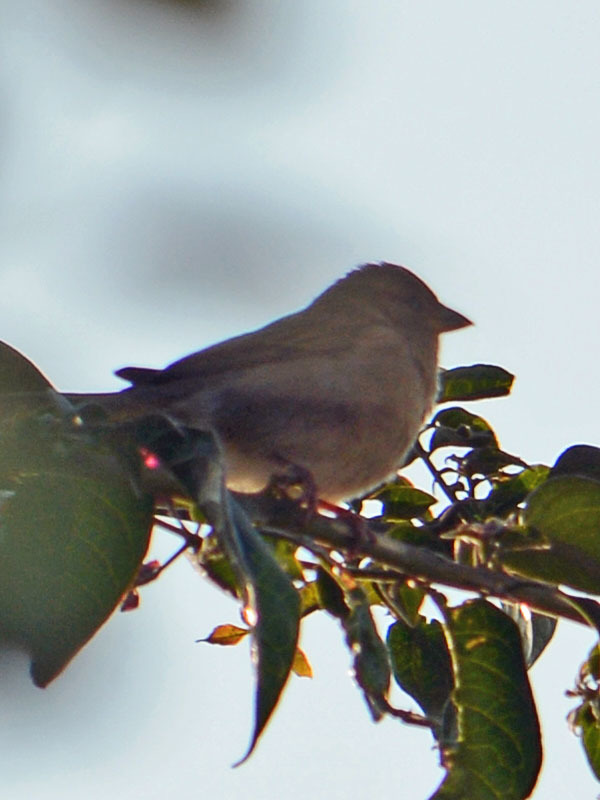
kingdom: Animalia
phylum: Chordata
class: Aves
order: Passeriformes
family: Passeridae
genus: Passer
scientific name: Passer domesticus
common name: House sparrow
